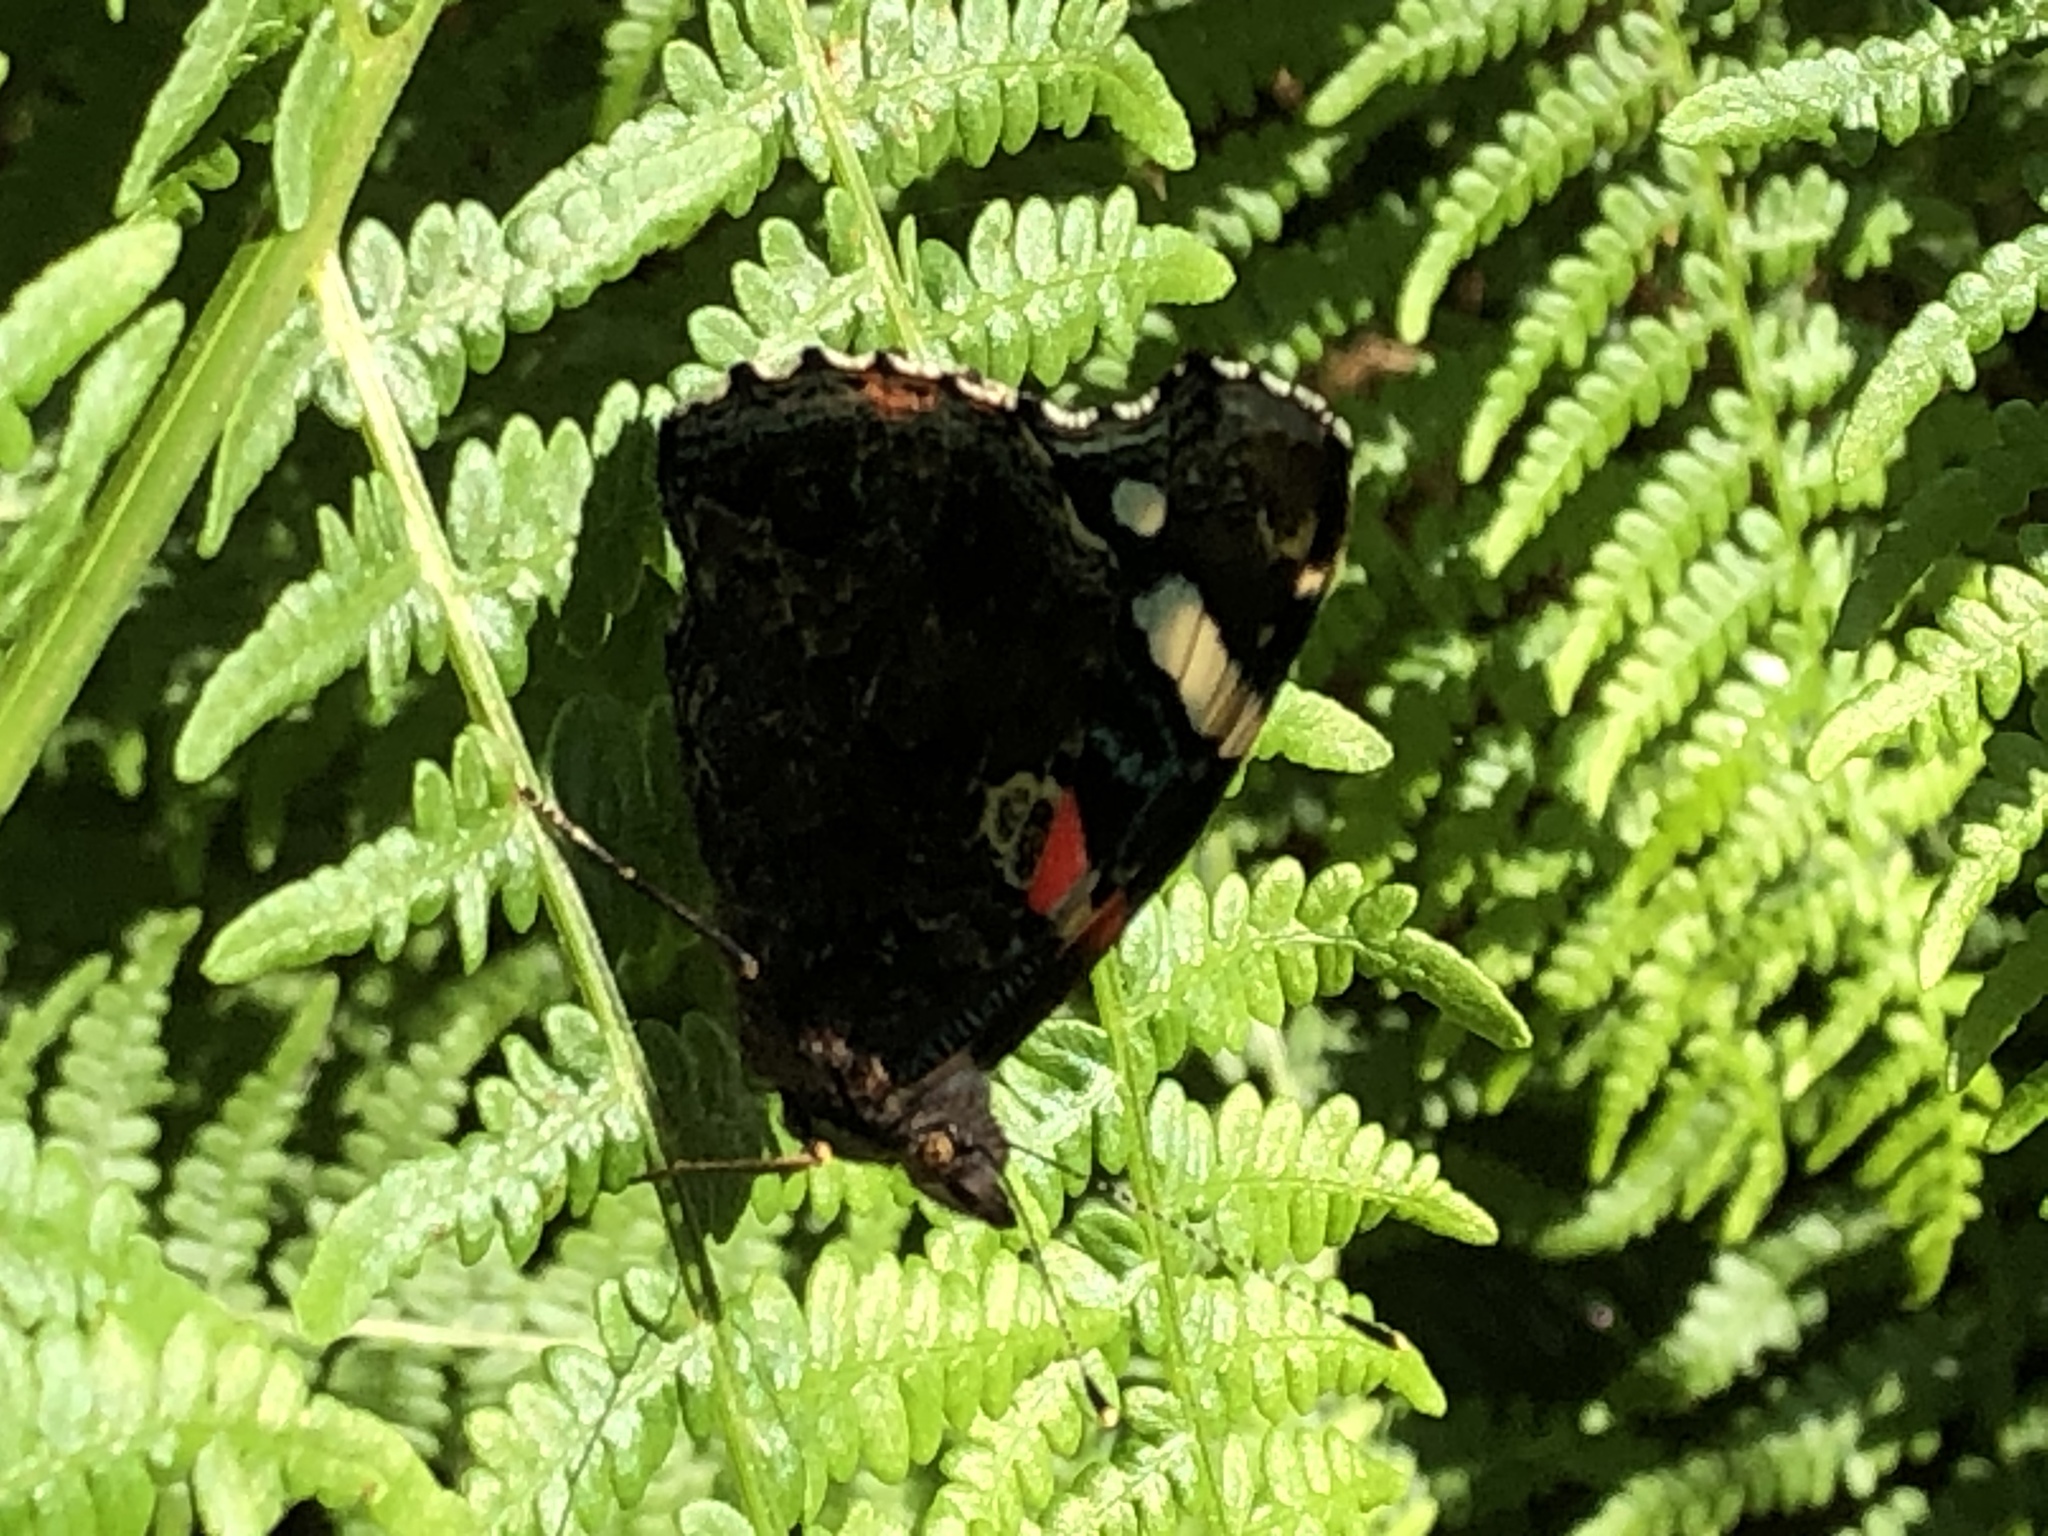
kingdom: Animalia
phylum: Arthropoda
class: Insecta
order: Lepidoptera
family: Nymphalidae
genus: Vanessa
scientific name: Vanessa atalanta
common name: Red admiral
